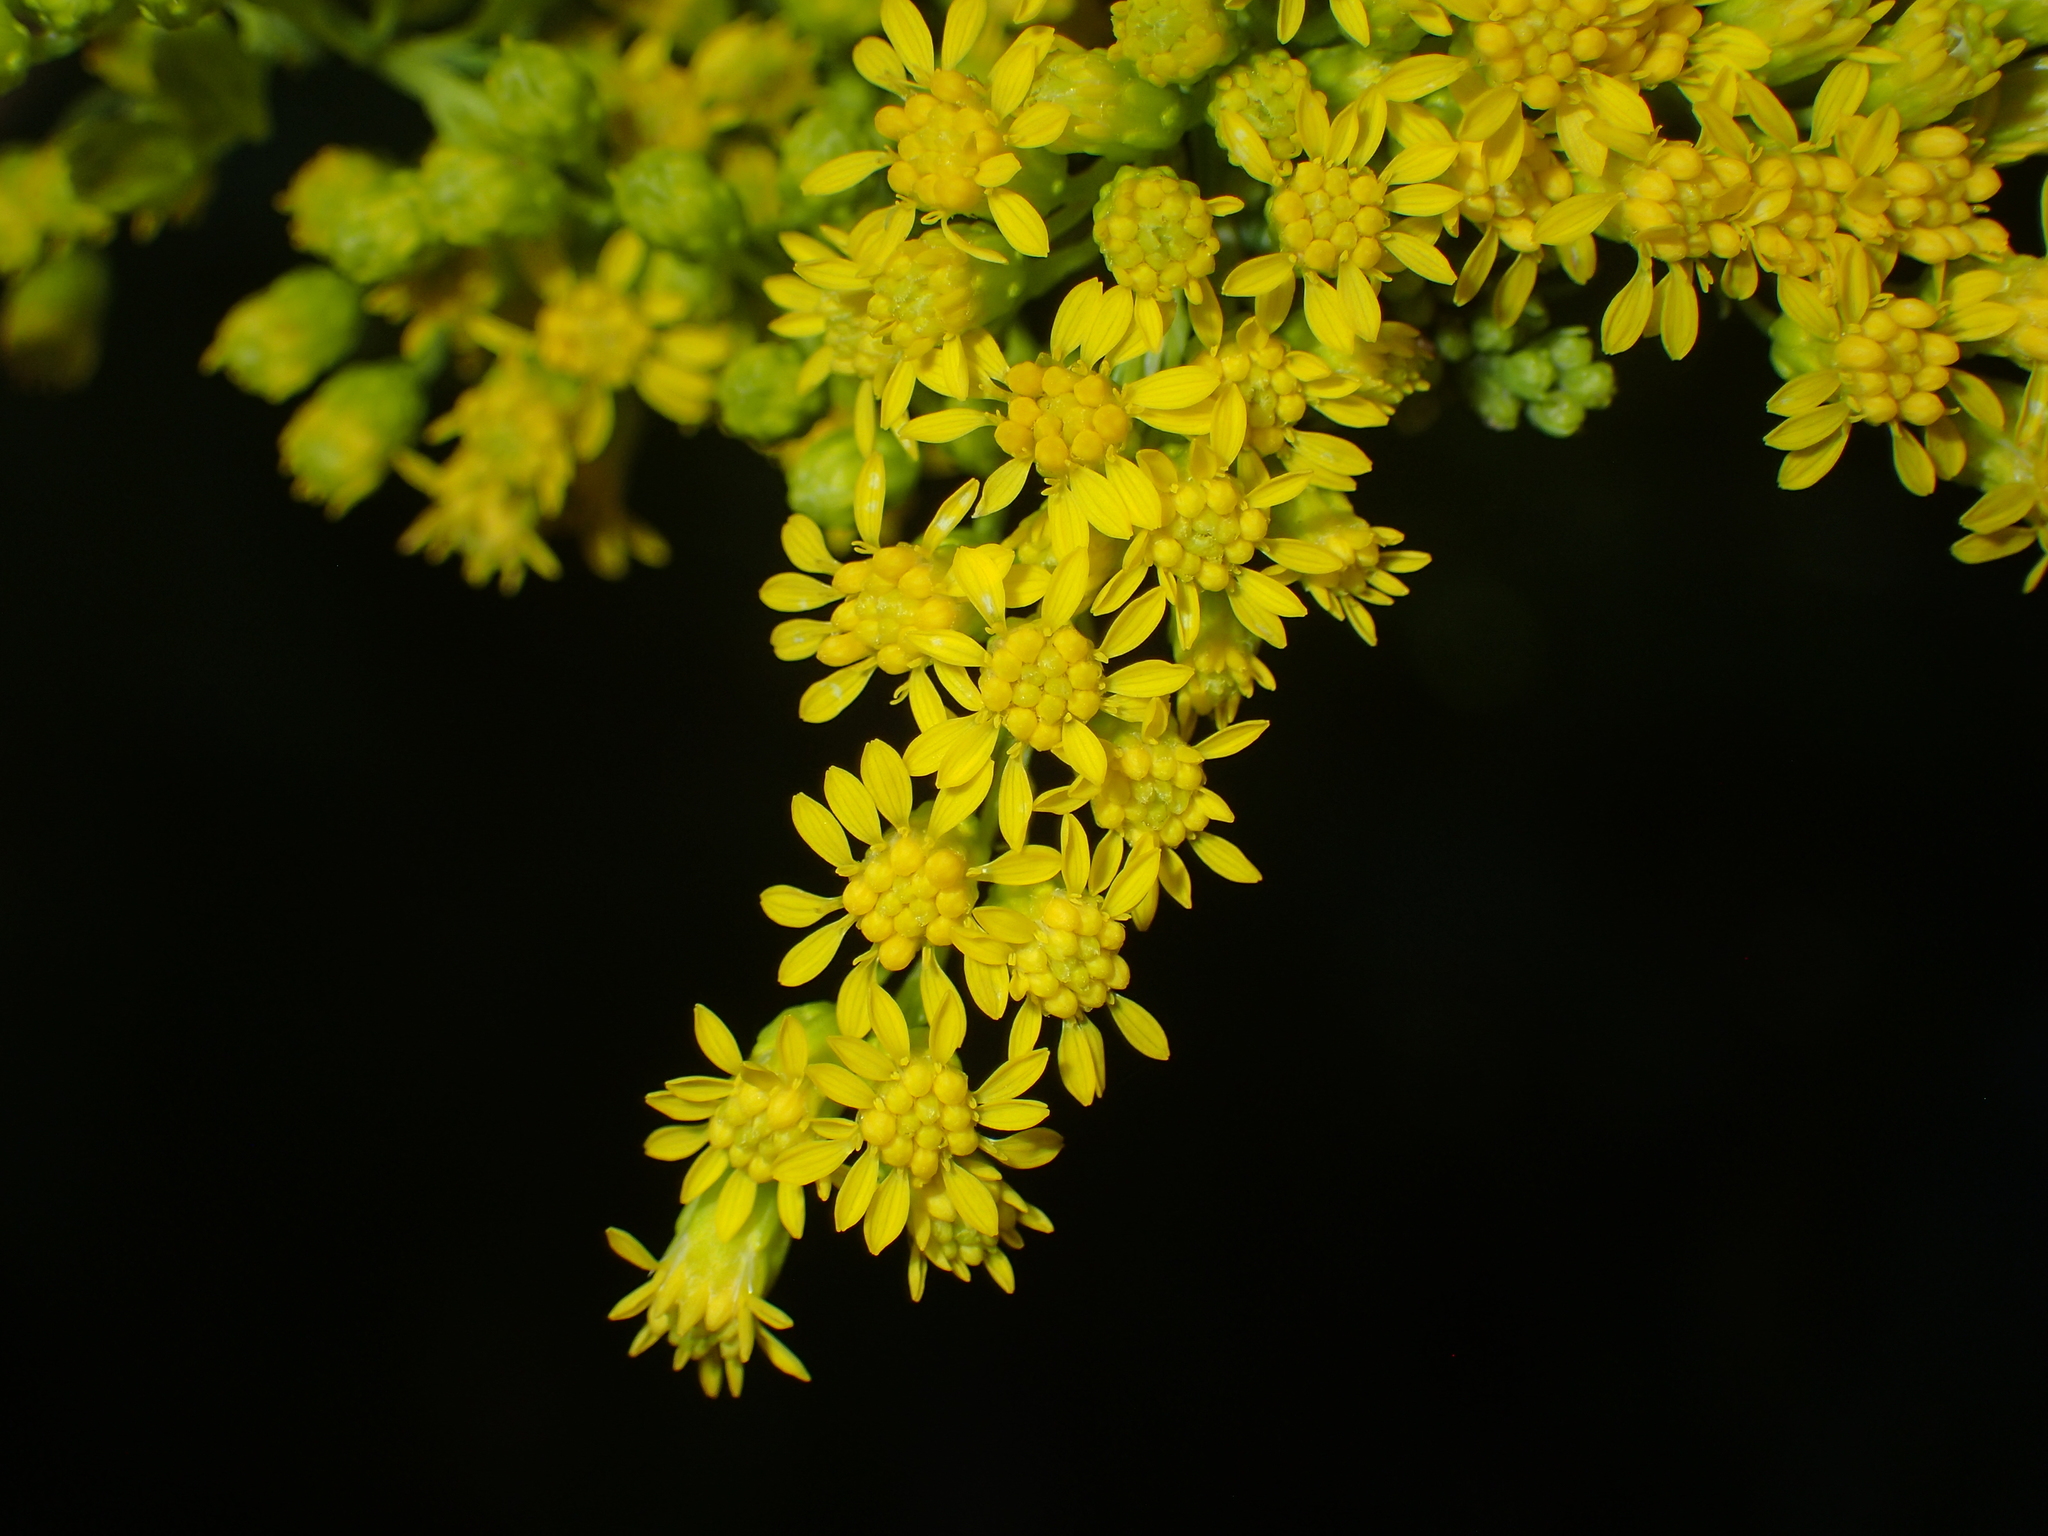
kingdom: Plantae
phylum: Tracheophyta
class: Magnoliopsida
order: Asterales
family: Asteraceae
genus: Solidago
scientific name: Solidago juncea
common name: Early goldenrod
